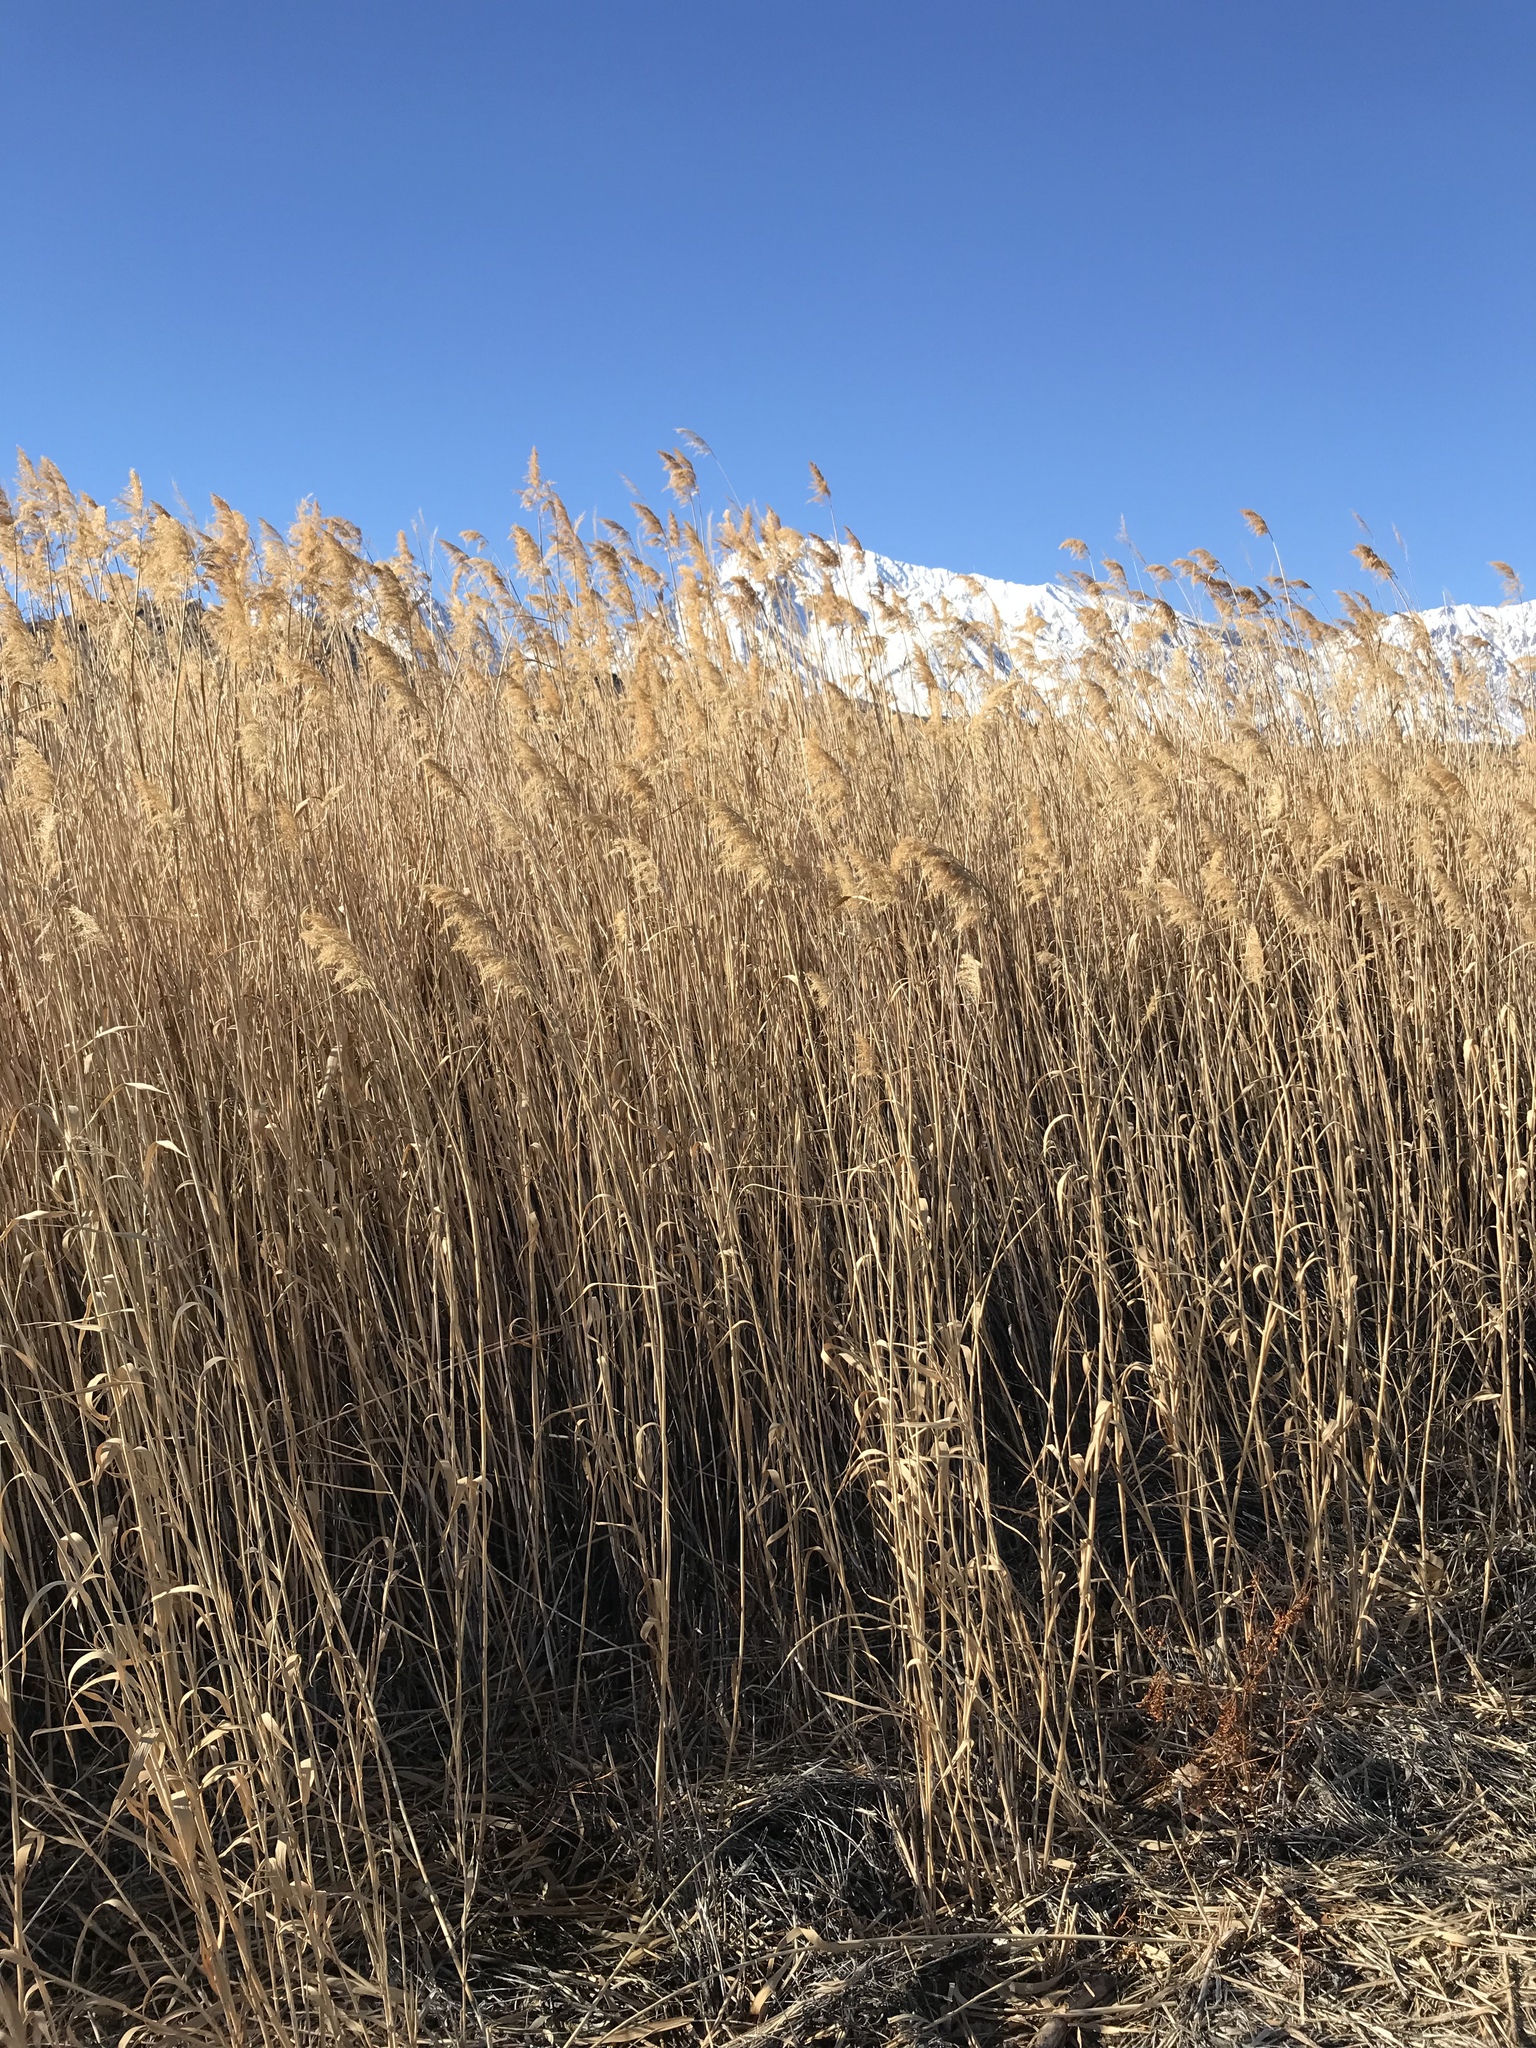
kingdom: Plantae
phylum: Tracheophyta
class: Liliopsida
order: Poales
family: Poaceae
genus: Phragmites
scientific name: Phragmites australis
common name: Common reed
